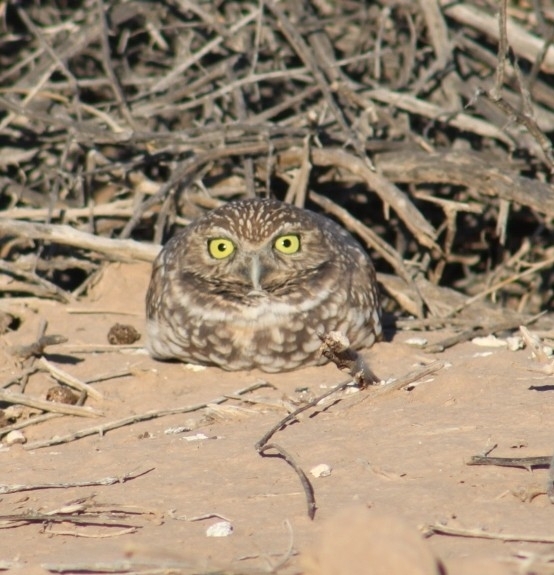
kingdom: Animalia
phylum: Chordata
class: Aves
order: Strigiformes
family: Strigidae
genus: Athene
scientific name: Athene cunicularia
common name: Burrowing owl
